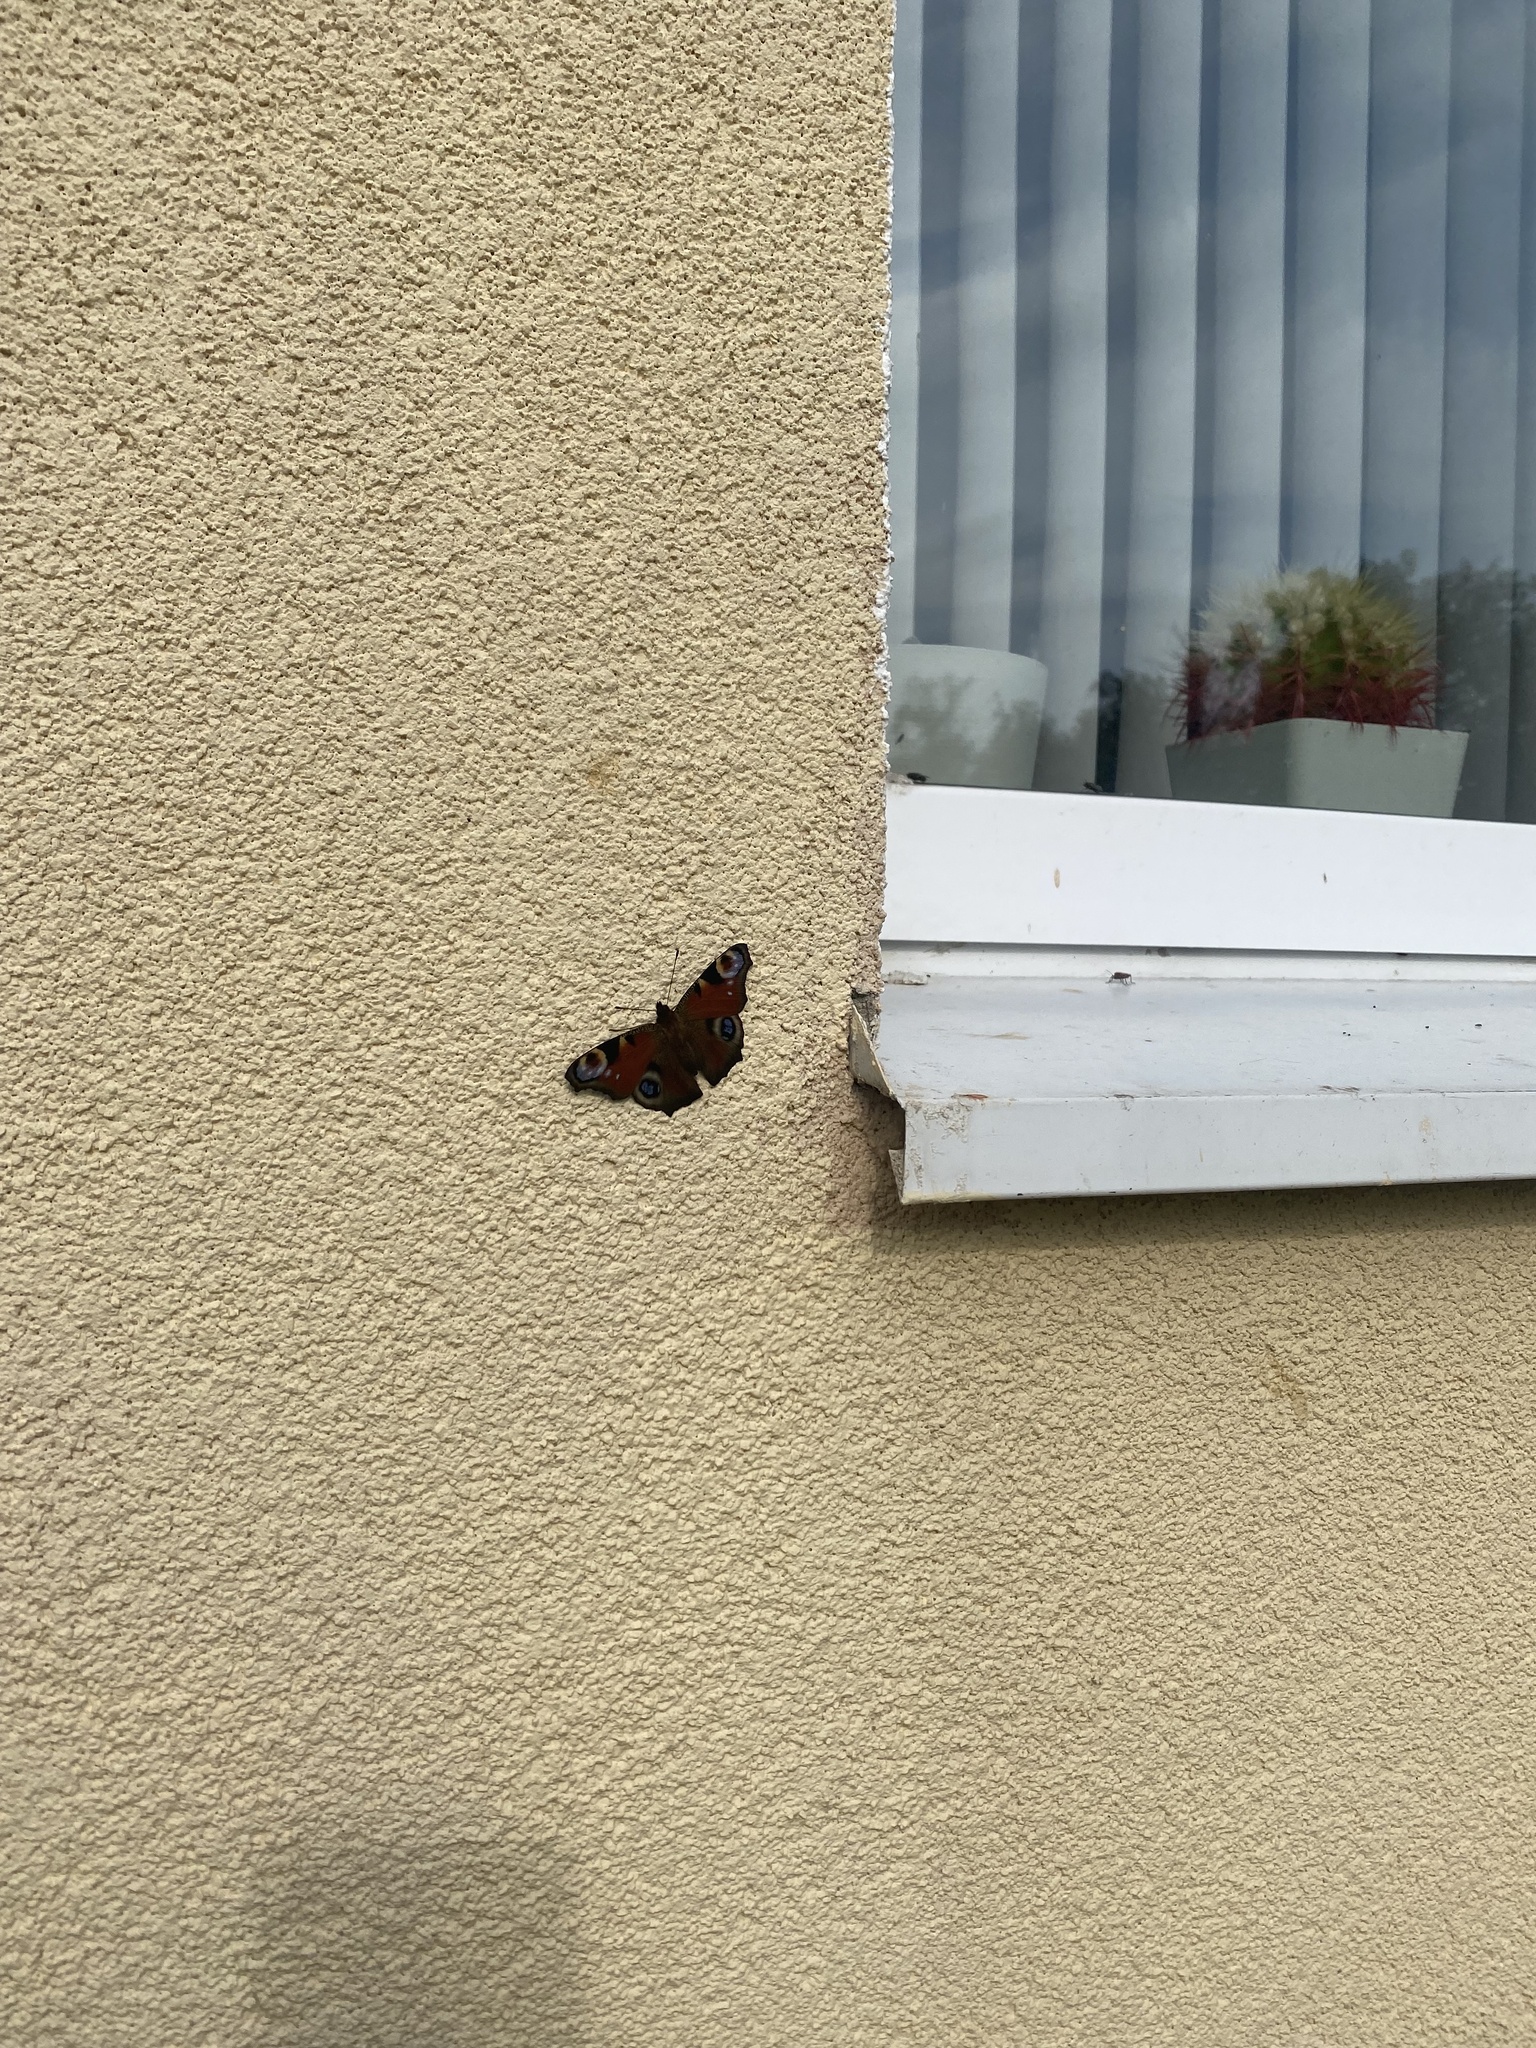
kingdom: Animalia
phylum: Arthropoda
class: Insecta
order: Lepidoptera
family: Nymphalidae
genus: Aglais
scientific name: Aglais io
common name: Peacock
